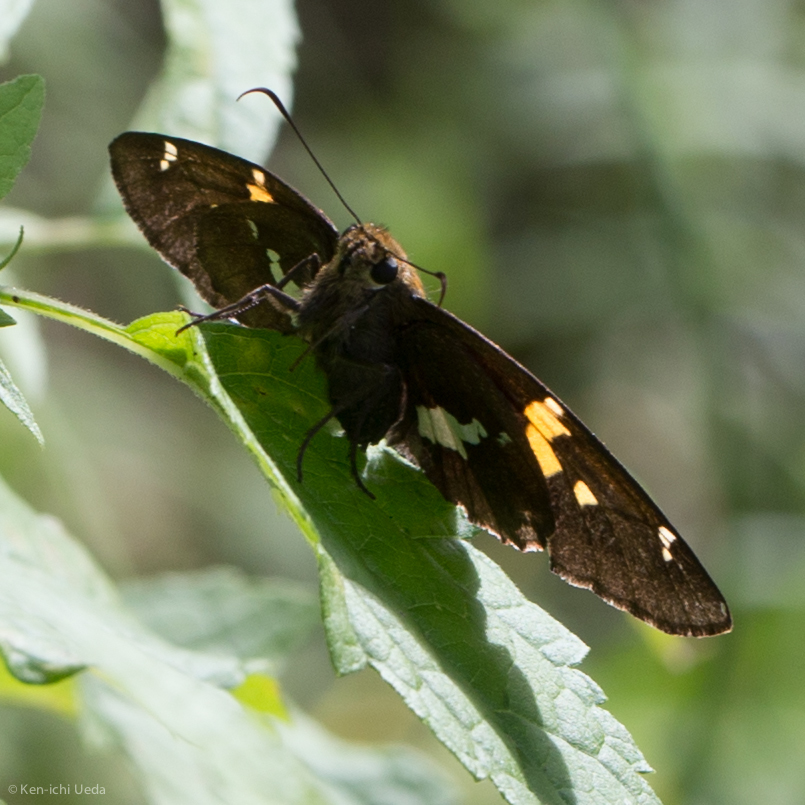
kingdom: Animalia
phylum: Arthropoda
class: Insecta
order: Lepidoptera
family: Hesperiidae
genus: Epargyreus
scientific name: Epargyreus clarus
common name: Silver-spotted skipper
